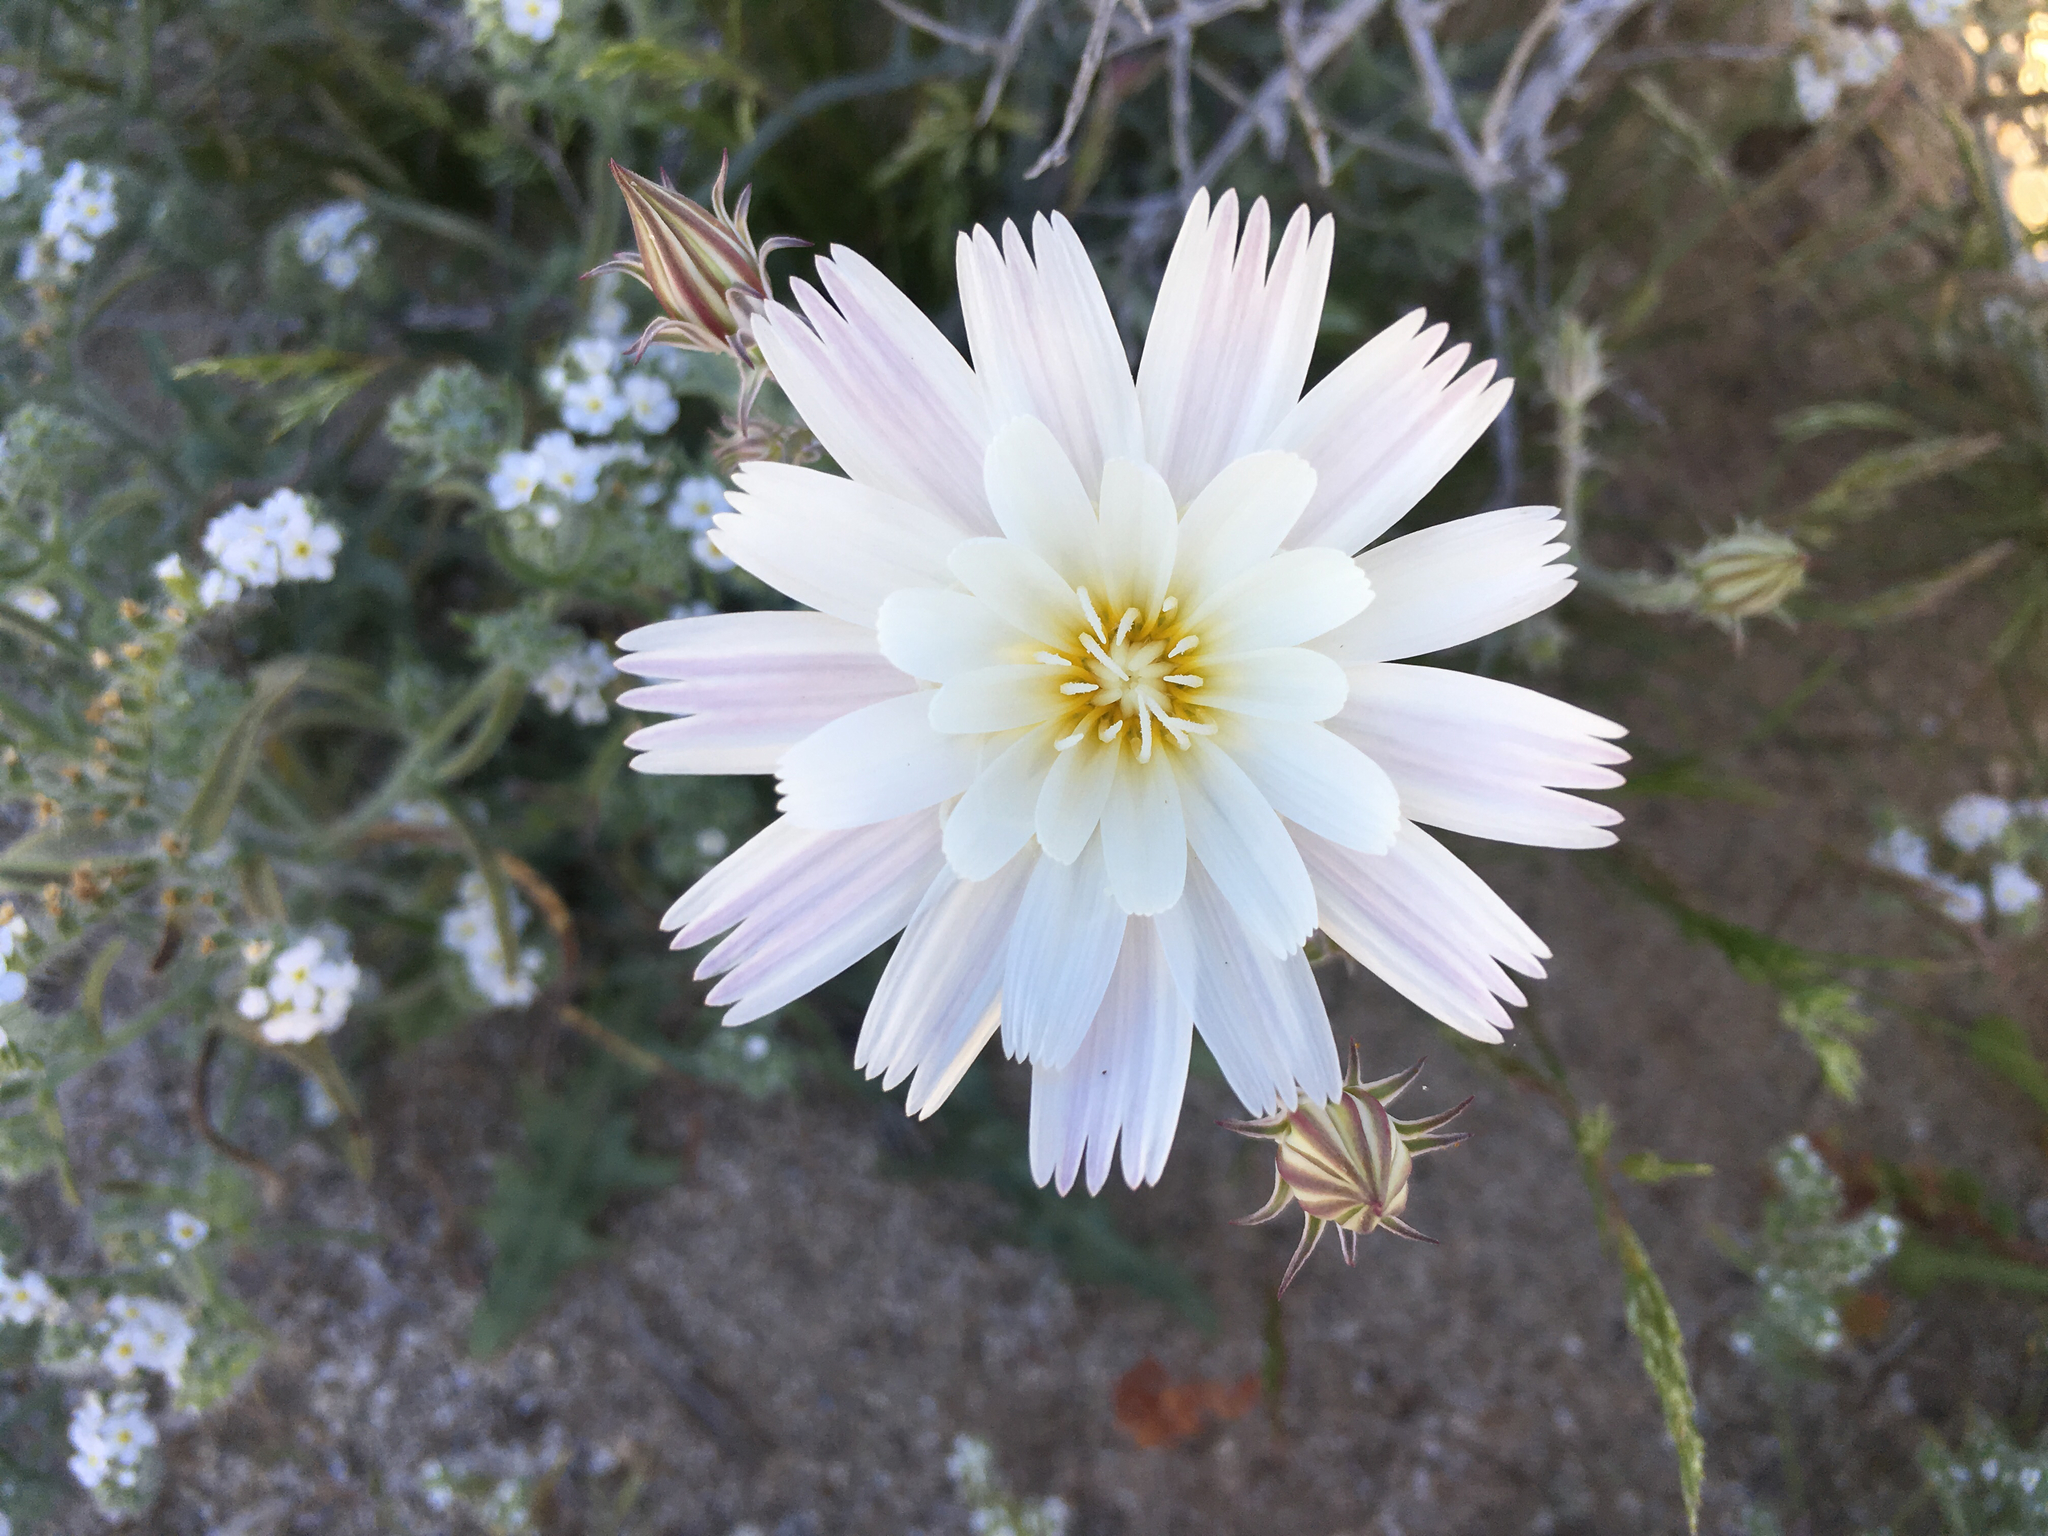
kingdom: Plantae
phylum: Tracheophyta
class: Magnoliopsida
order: Asterales
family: Asteraceae
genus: Rafinesquia
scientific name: Rafinesquia neomexicana
